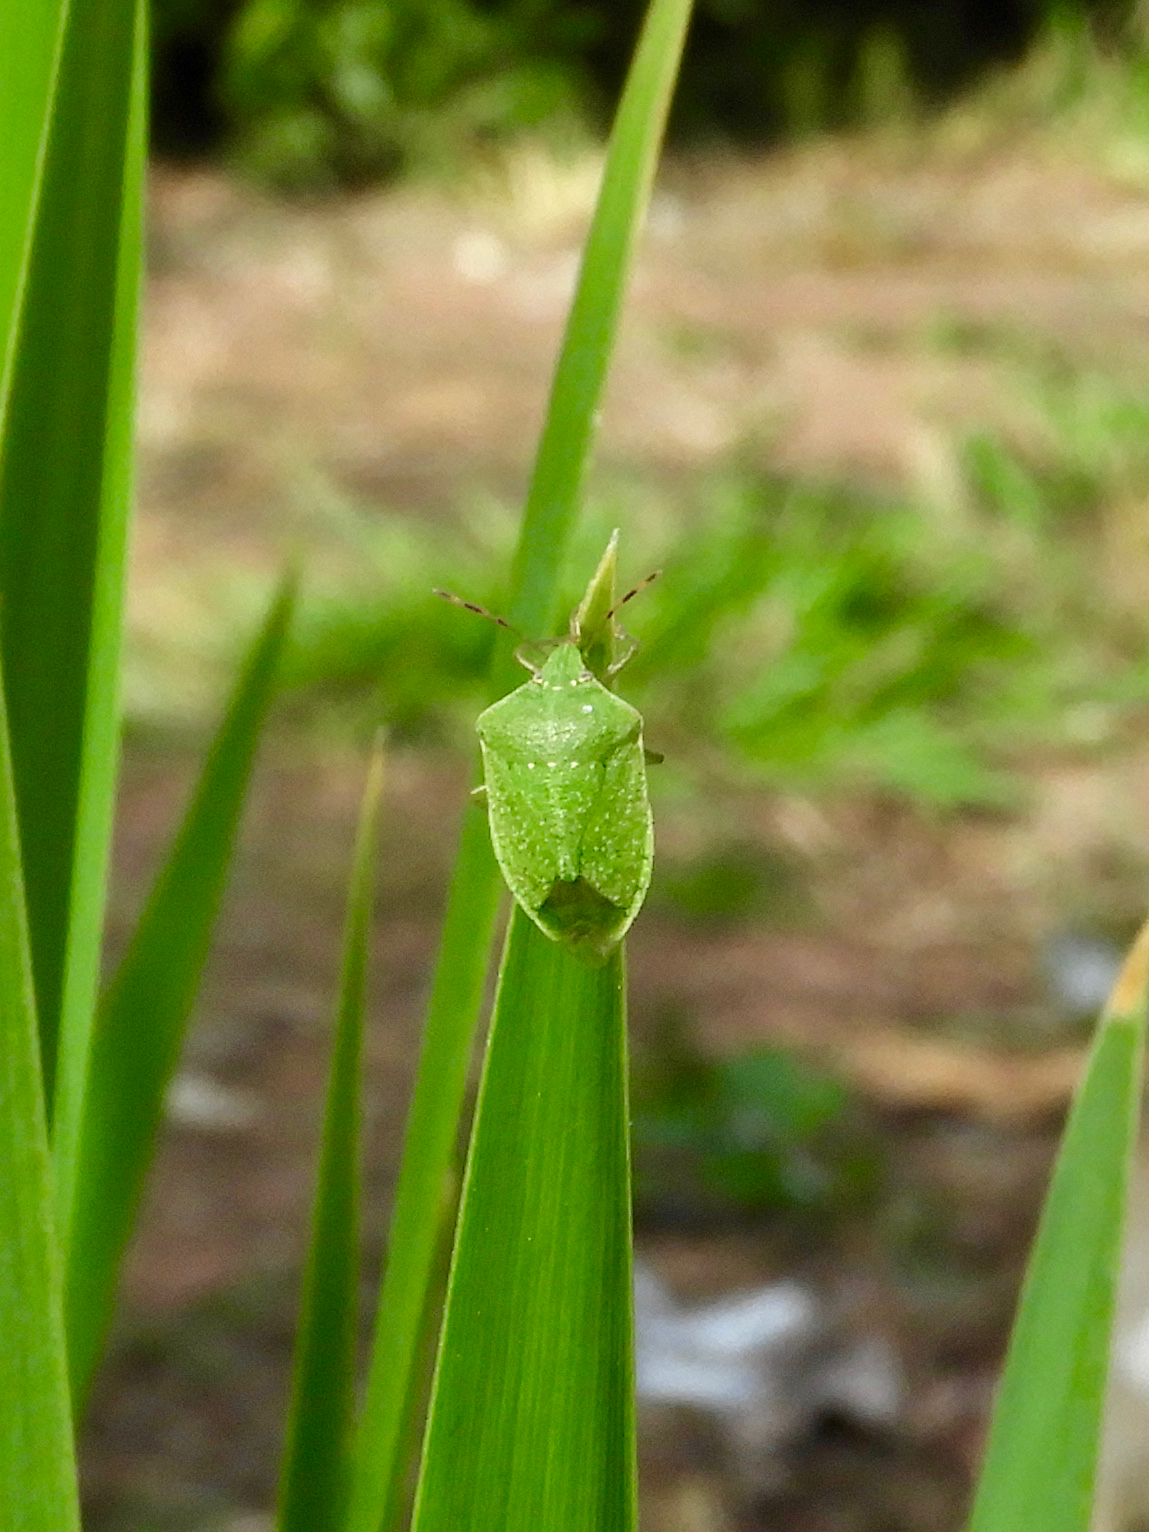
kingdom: Animalia
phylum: Arthropoda
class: Insecta
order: Hemiptera
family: Pentatomidae
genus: Nezara
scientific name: Nezara viridula
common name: Southern green stink bug
